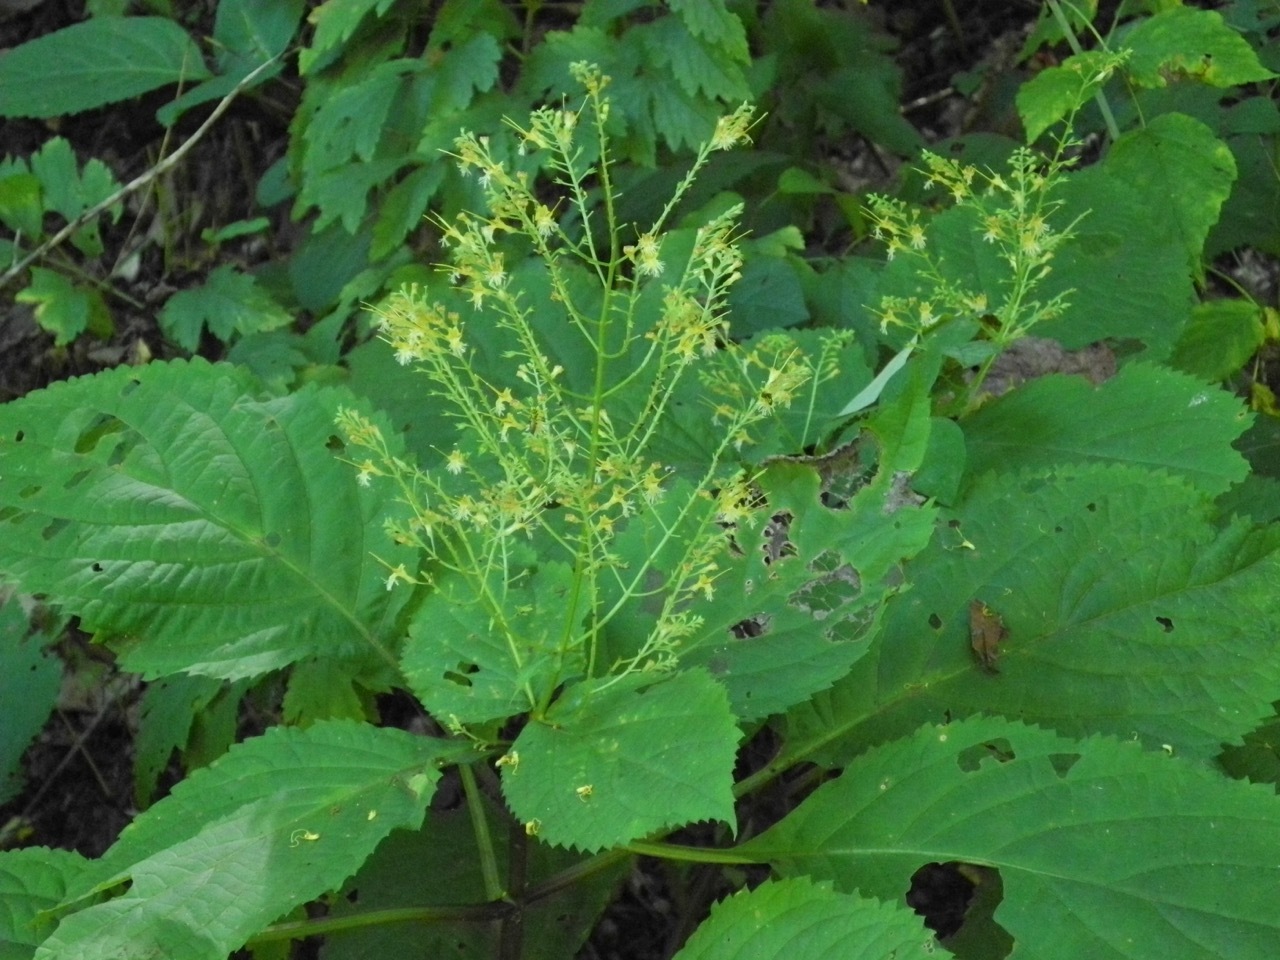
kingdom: Plantae
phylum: Tracheophyta
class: Magnoliopsida
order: Lamiales
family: Lamiaceae
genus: Collinsonia
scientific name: Collinsonia canadensis
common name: Northern horsebalm
